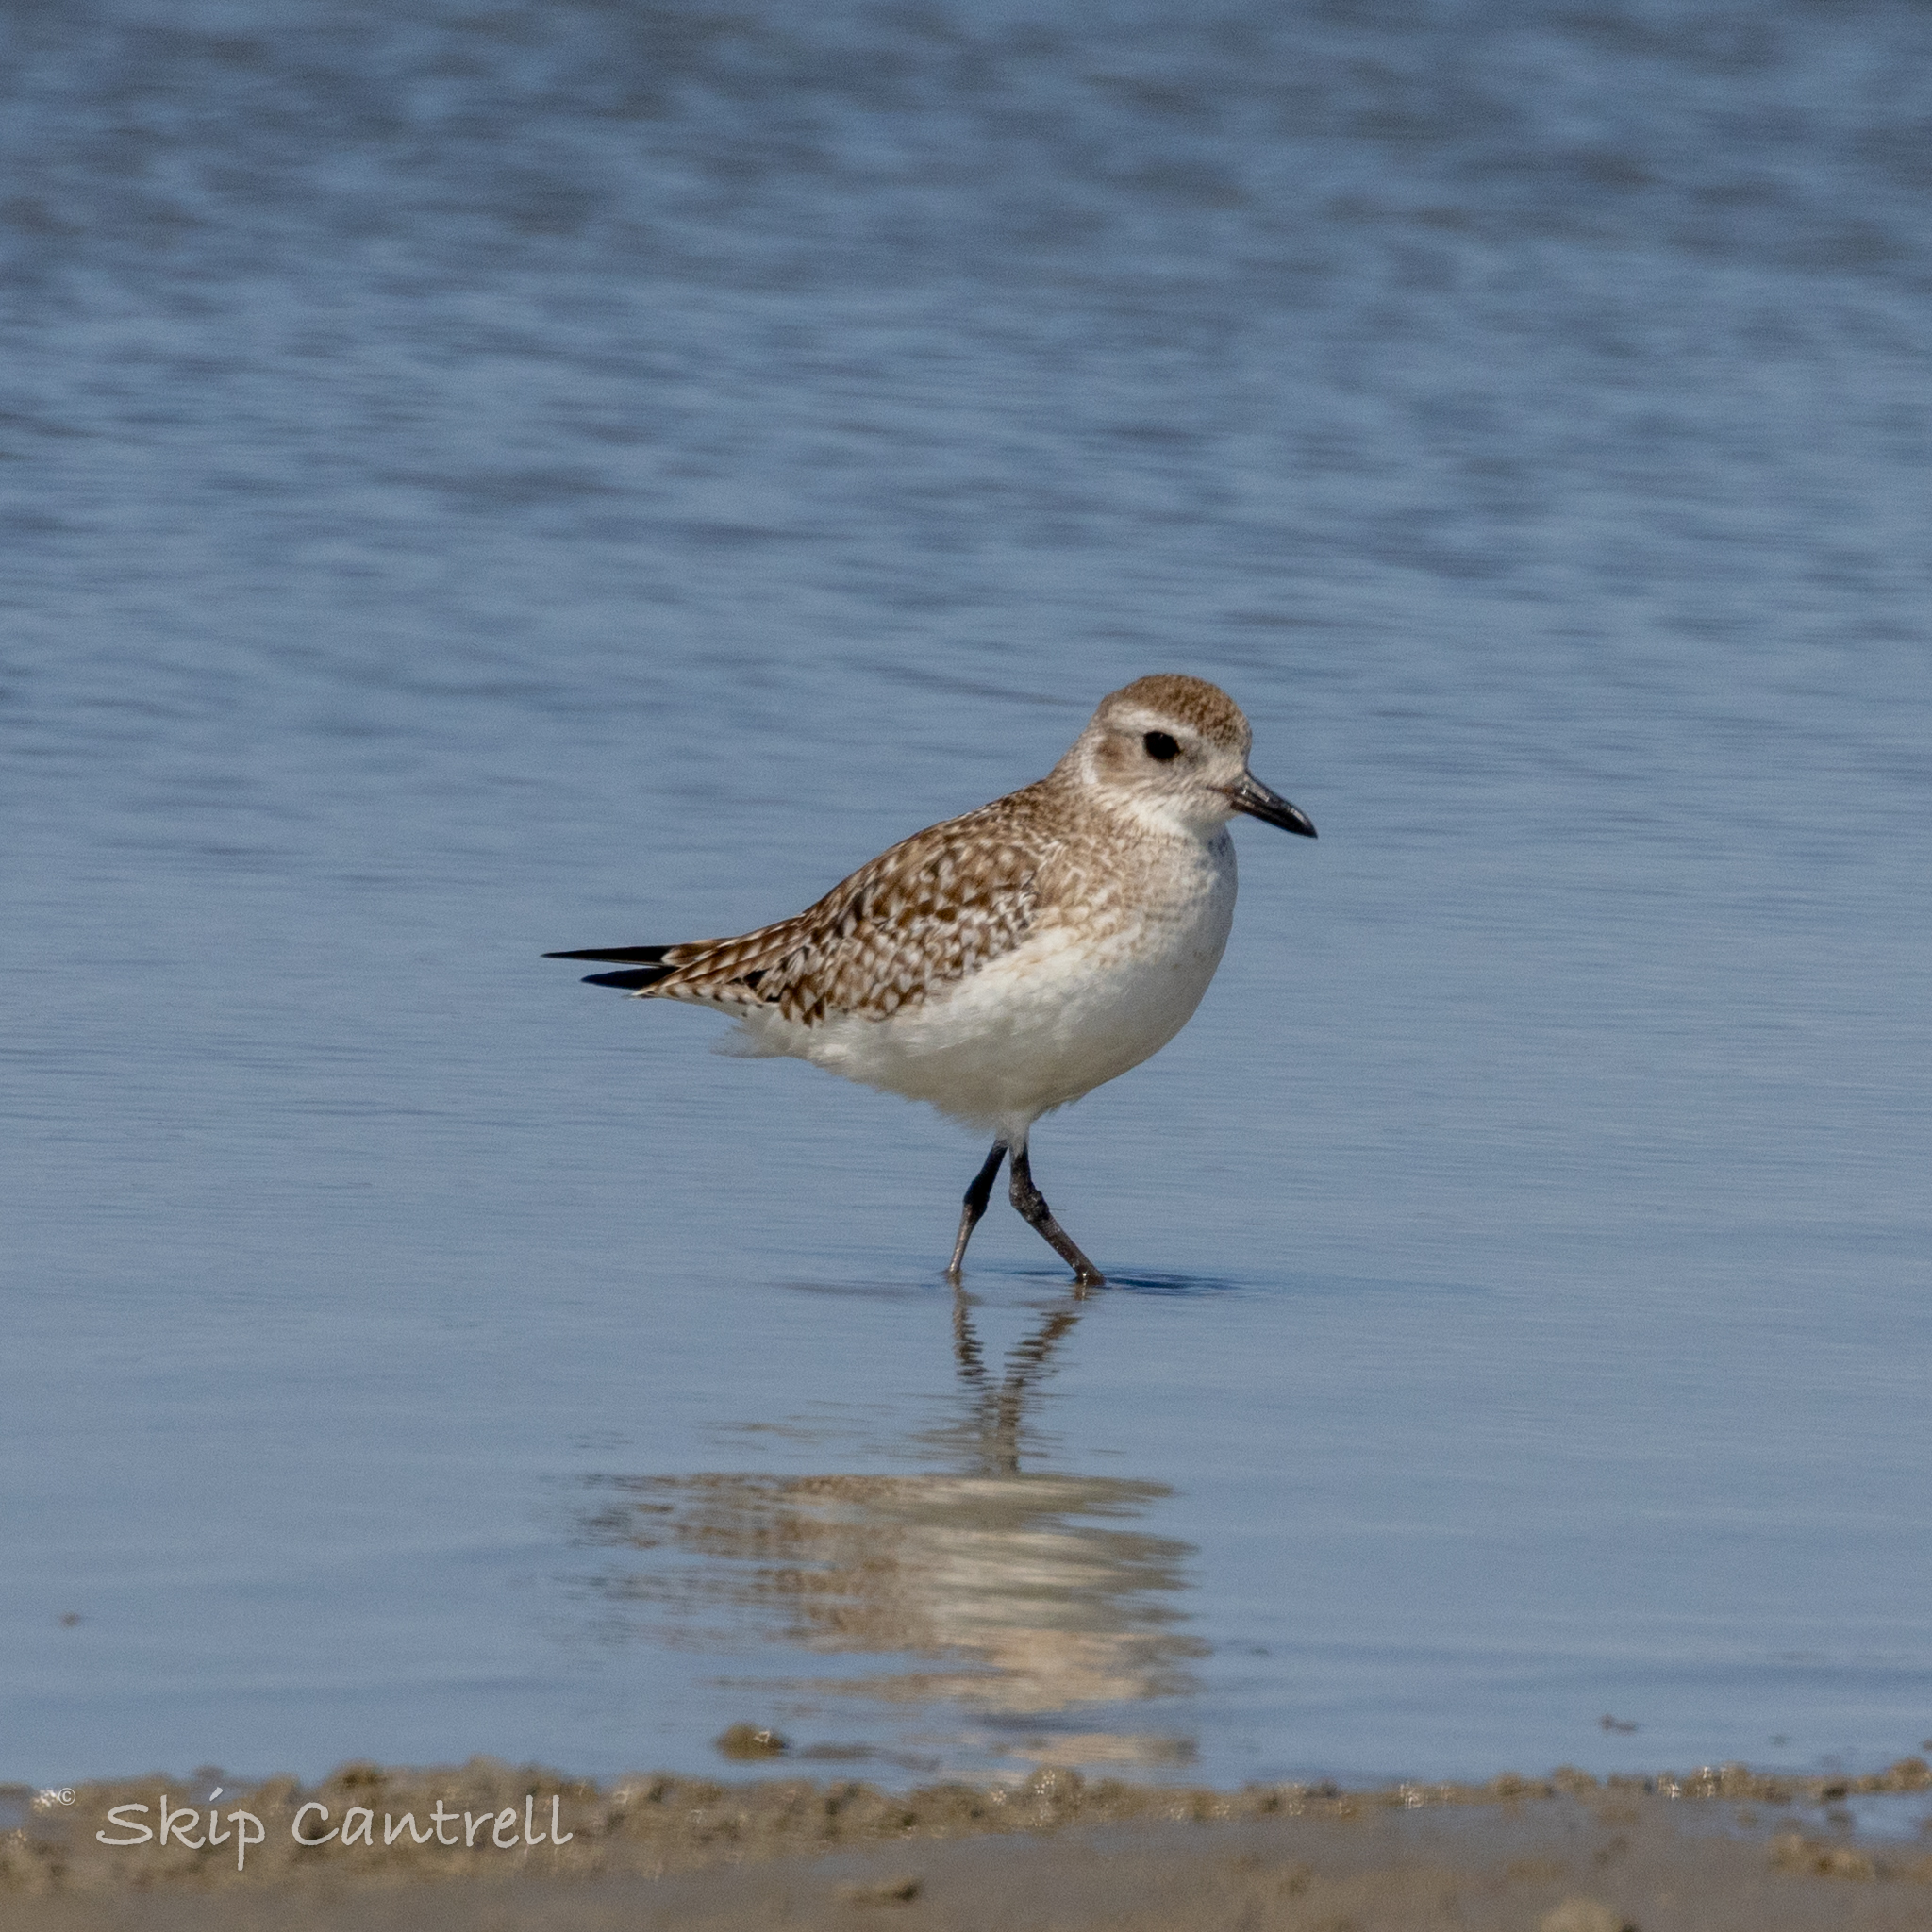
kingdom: Animalia
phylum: Chordata
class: Aves
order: Charadriiformes
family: Charadriidae
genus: Pluvialis
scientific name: Pluvialis squatarola
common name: Grey plover
